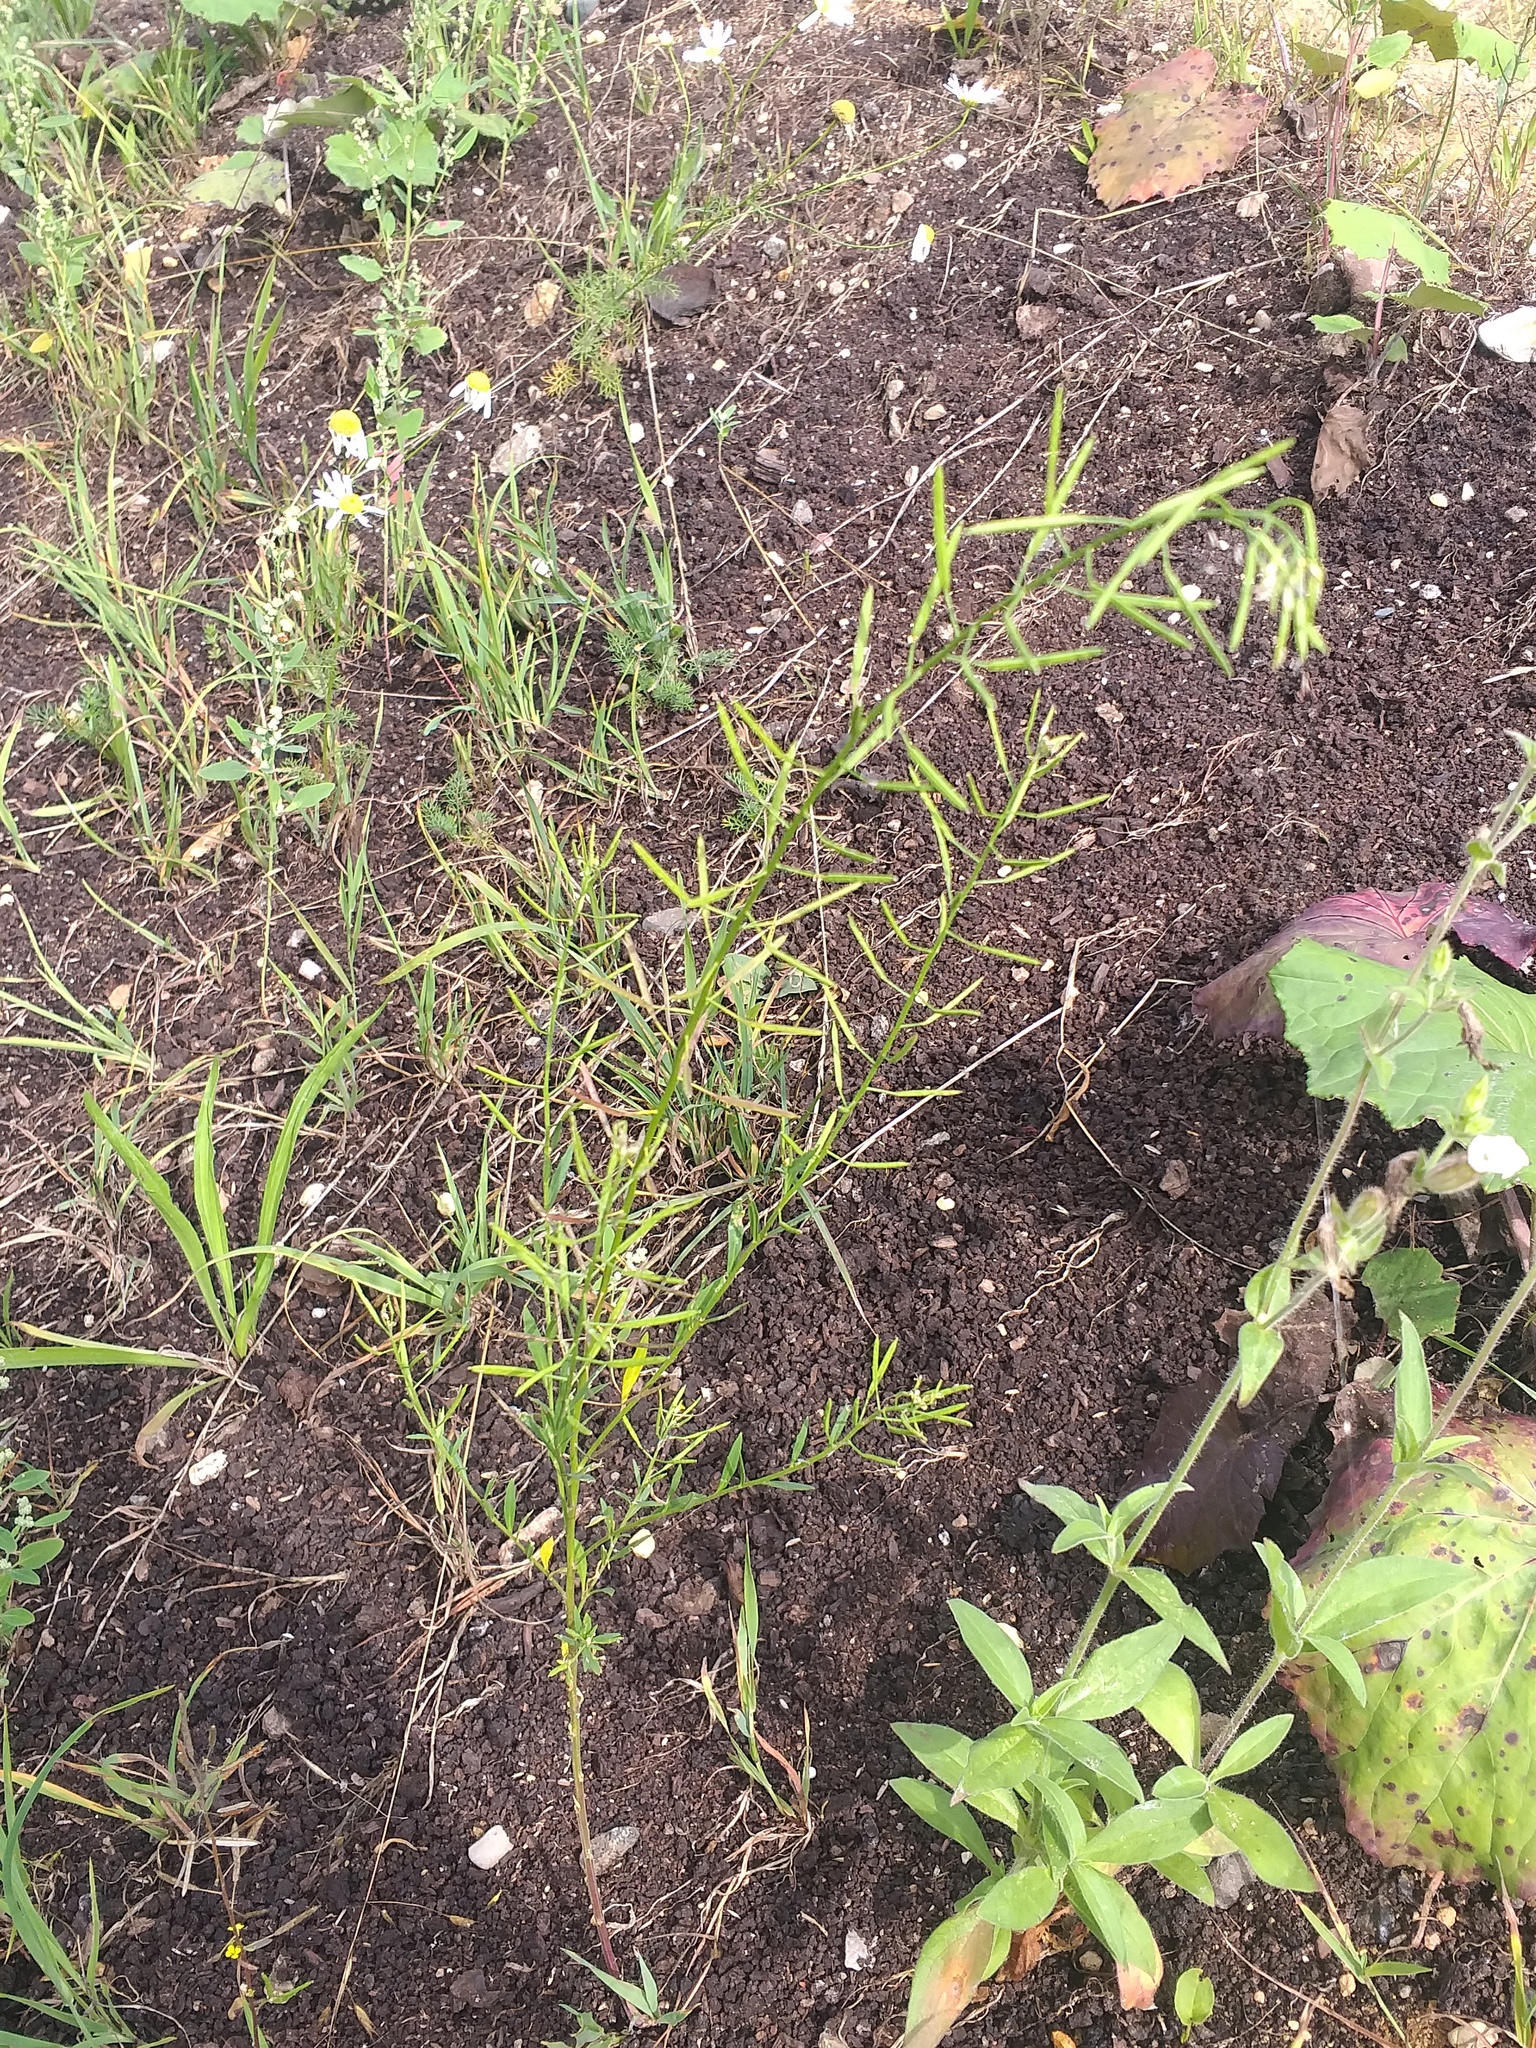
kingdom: Plantae
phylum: Tracheophyta
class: Magnoliopsida
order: Brassicales
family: Brassicaceae
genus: Erysimum
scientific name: Erysimum cheiranthoides
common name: Treacle mustard
